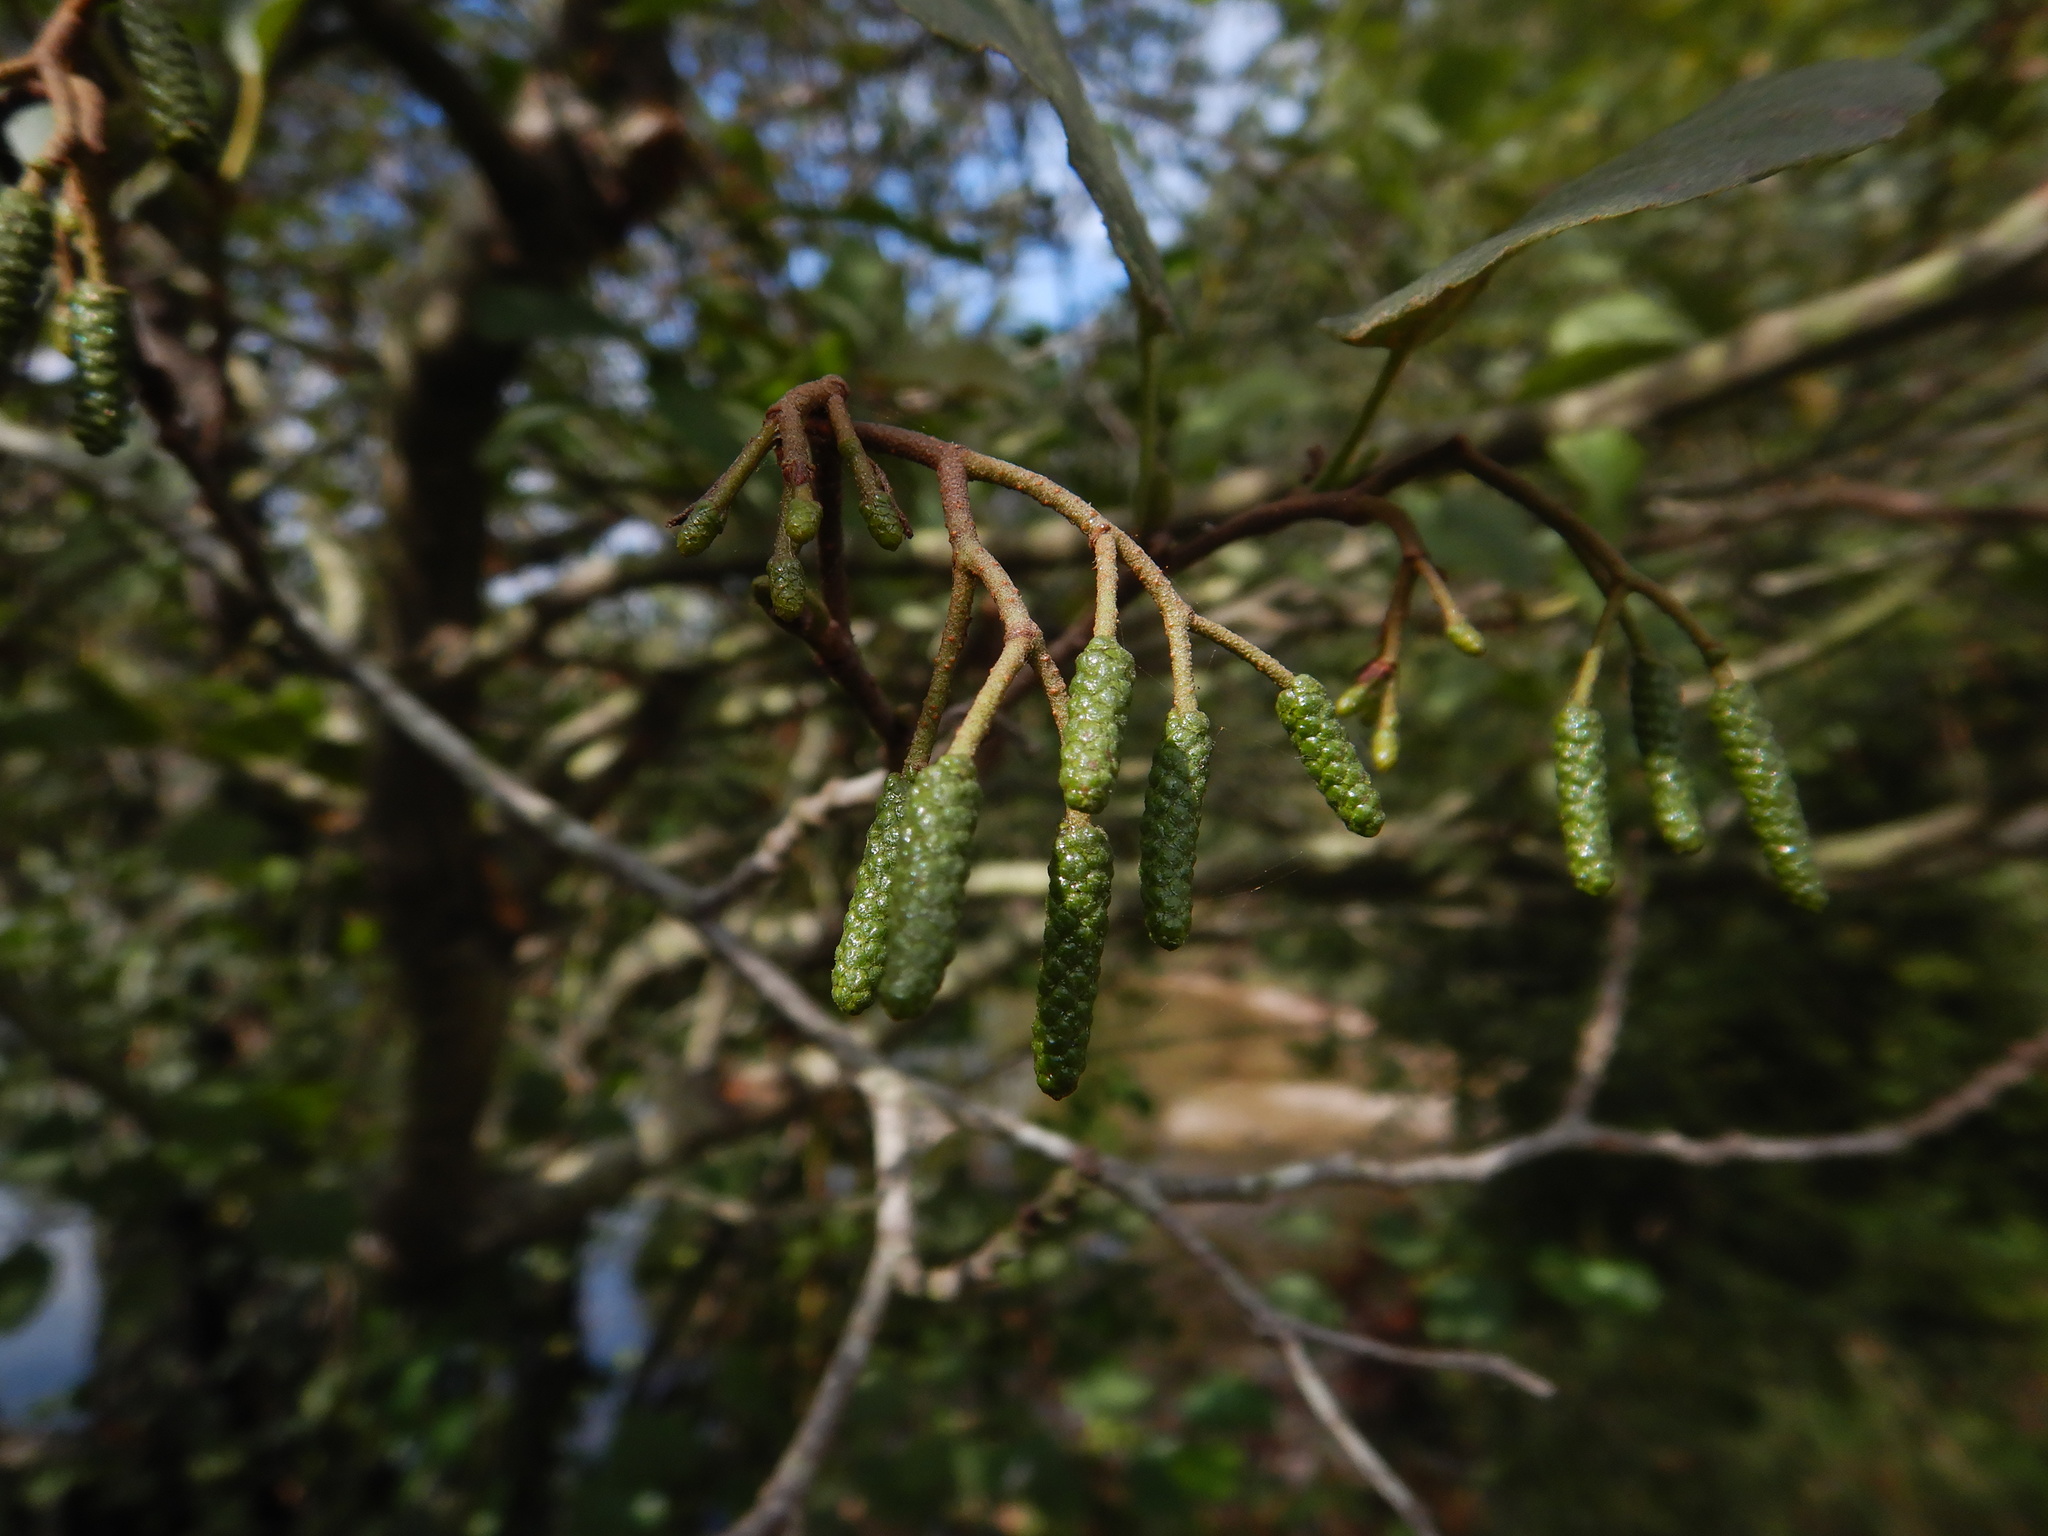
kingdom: Plantae
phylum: Tracheophyta
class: Magnoliopsida
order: Fagales
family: Betulaceae
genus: Alnus
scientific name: Alnus lusitanica
